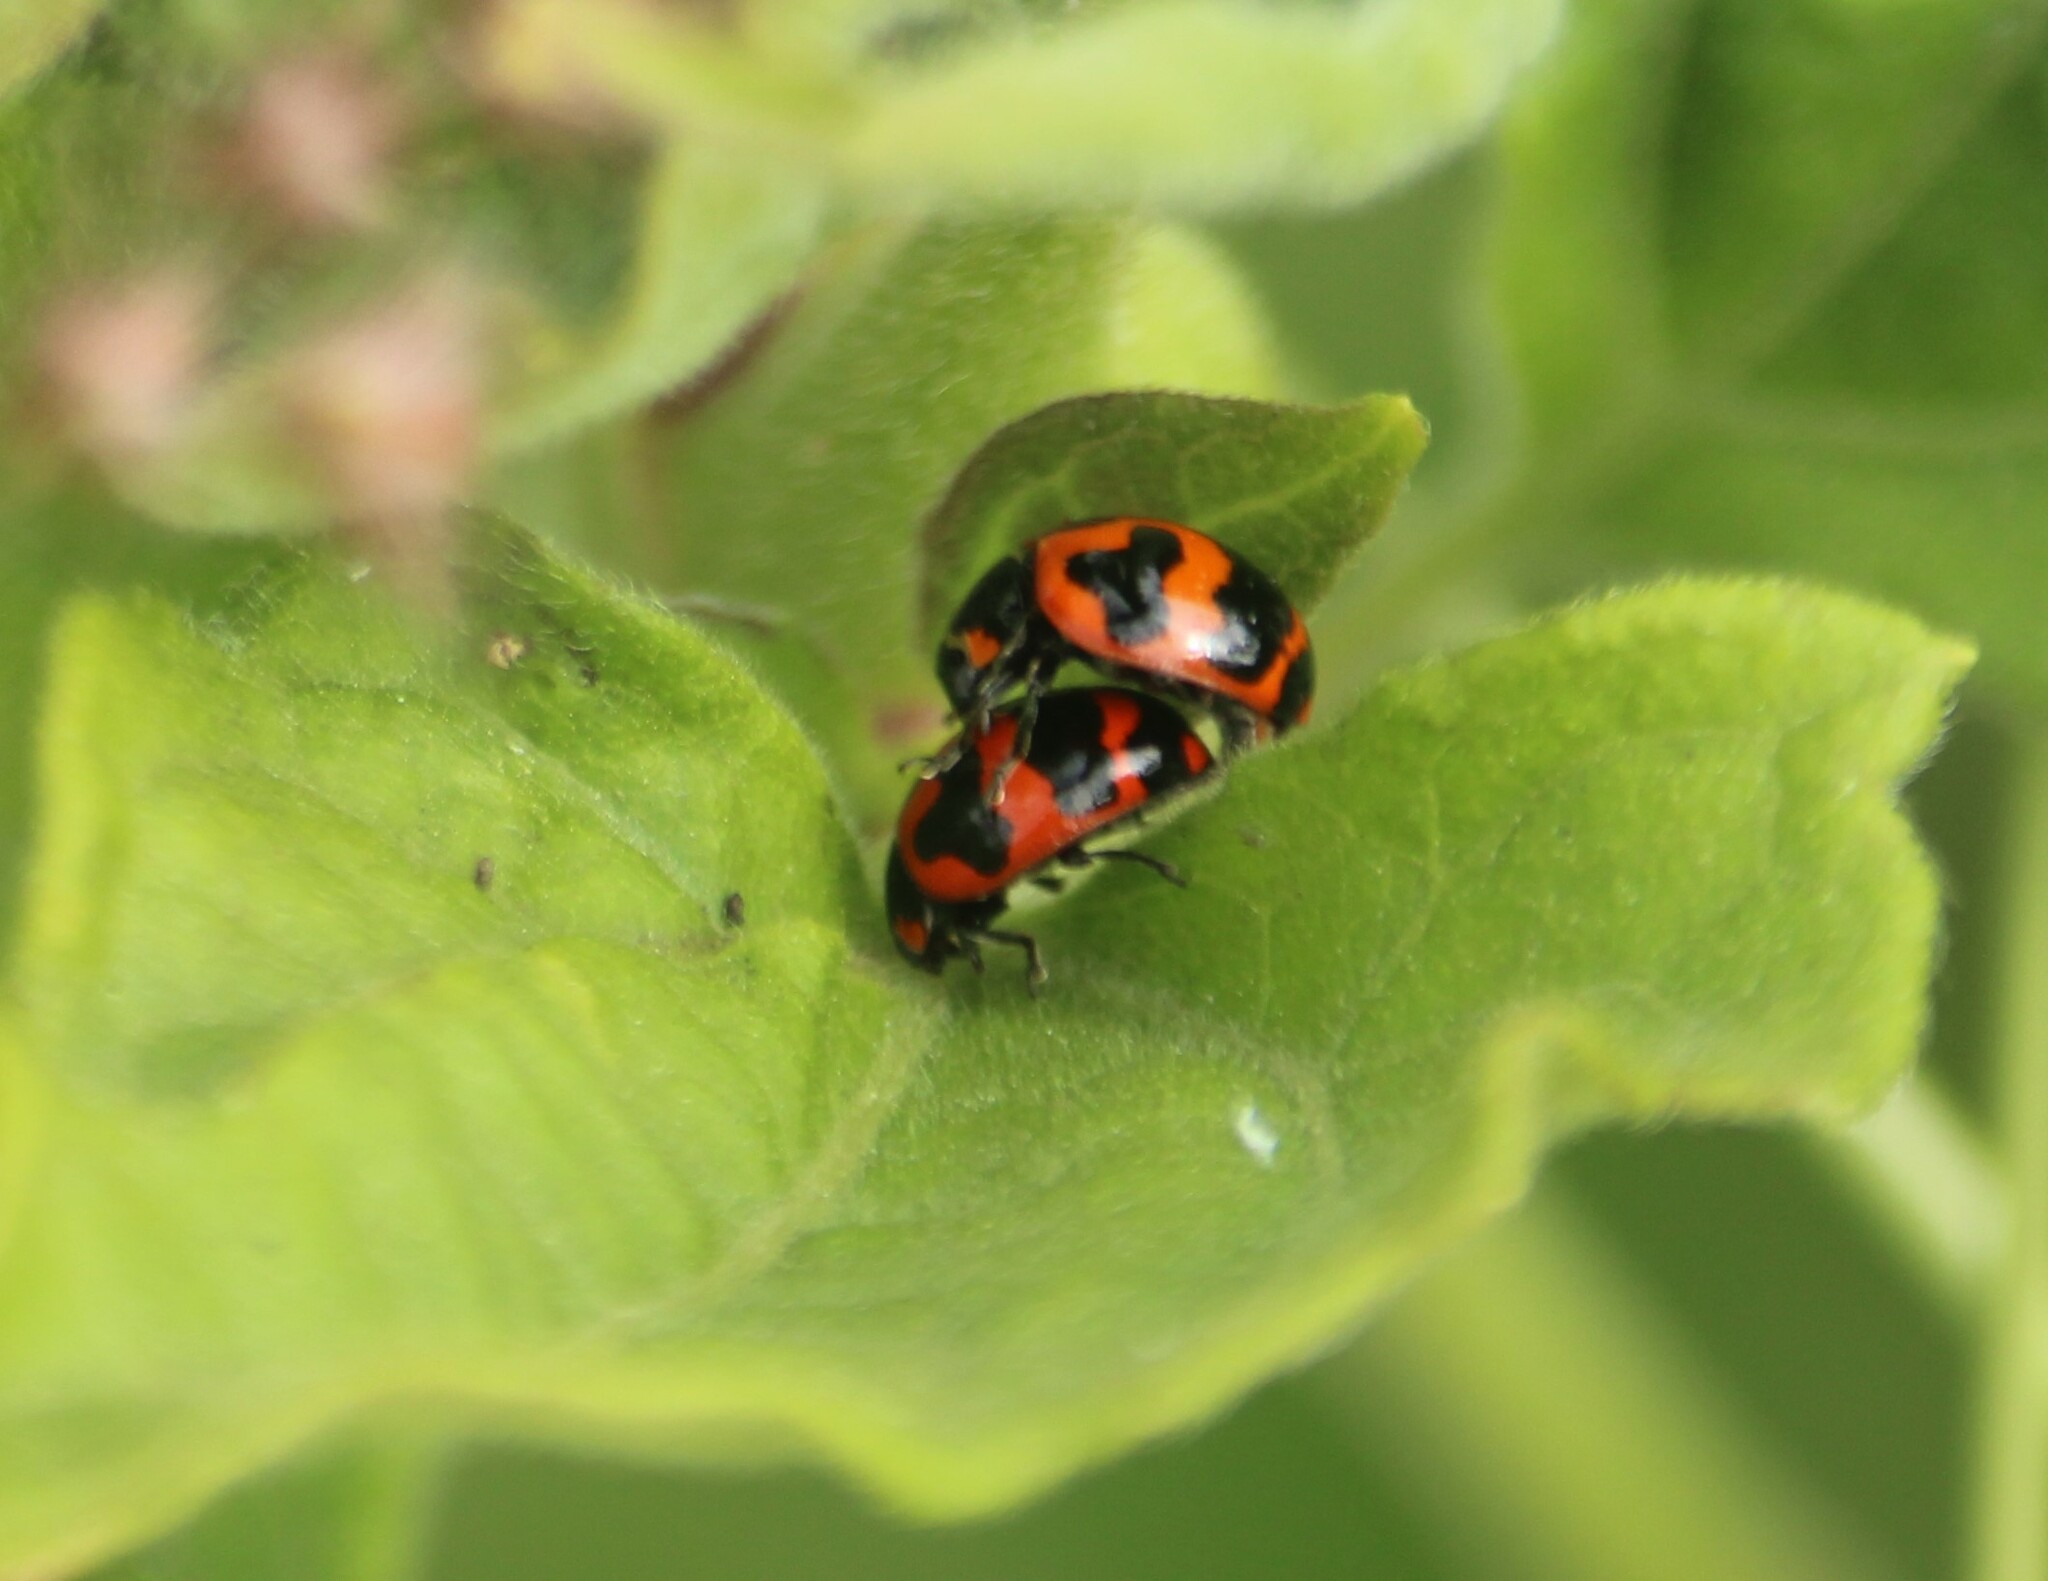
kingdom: Animalia
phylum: Arthropoda
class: Insecta
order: Coleoptera
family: Coccinellidae
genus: Coccinella
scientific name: Coccinella transversalis
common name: Transverse lady beetle
